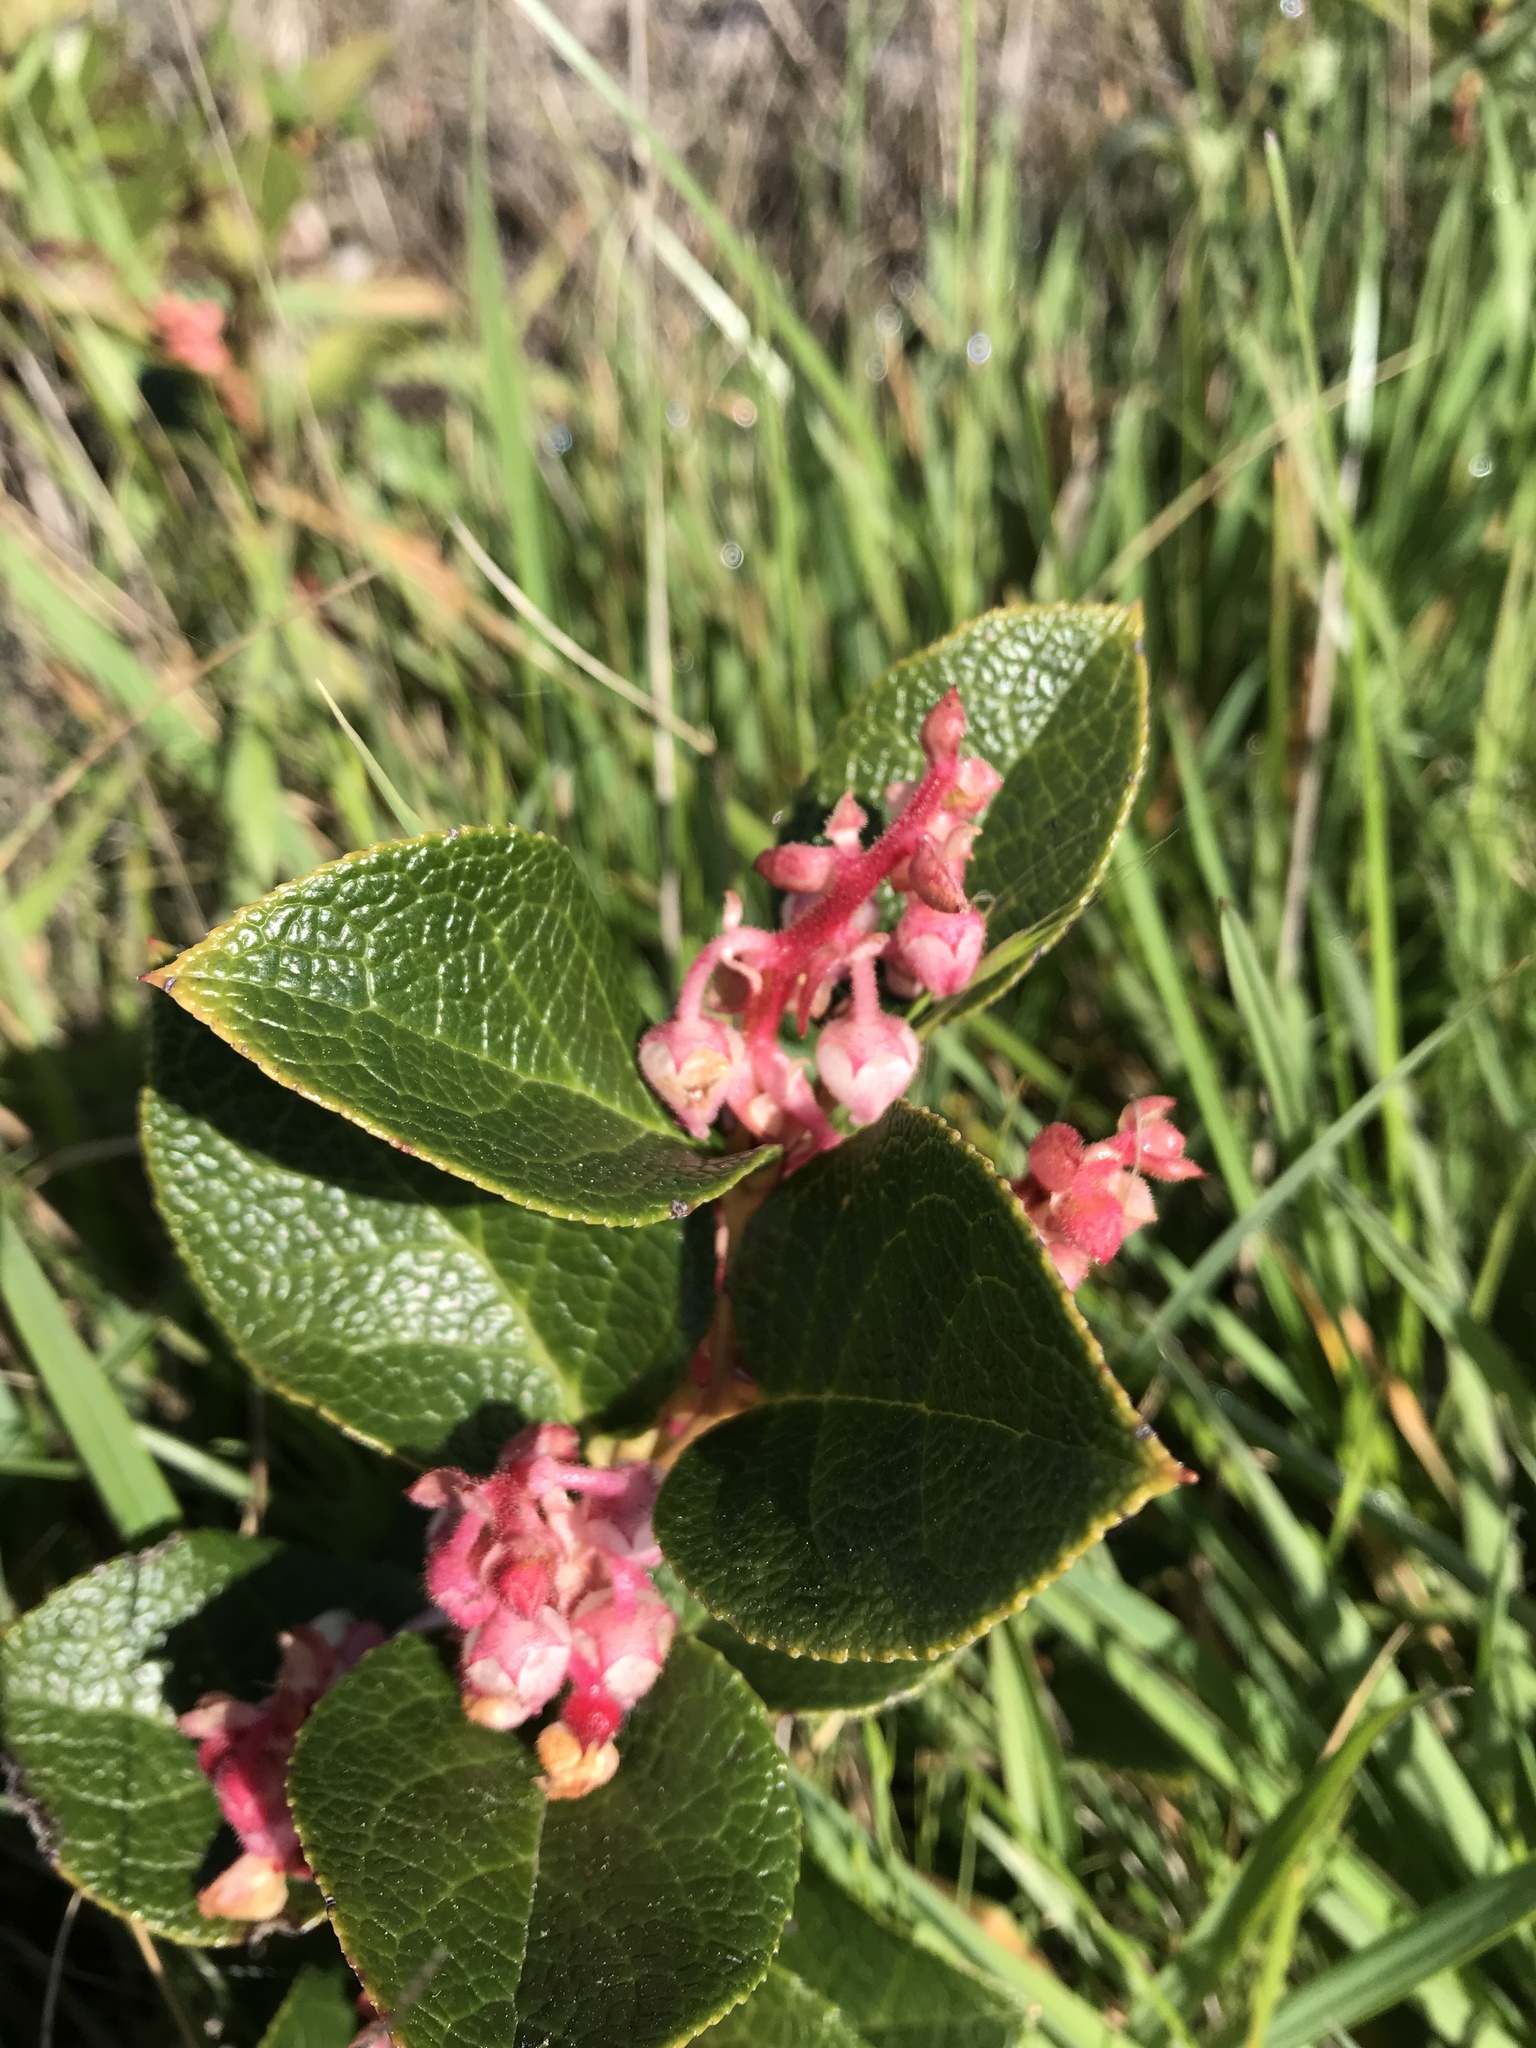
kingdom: Plantae
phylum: Tracheophyta
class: Magnoliopsida
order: Ericales
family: Ericaceae
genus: Gaultheria
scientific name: Gaultheria shallon
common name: Shallon
